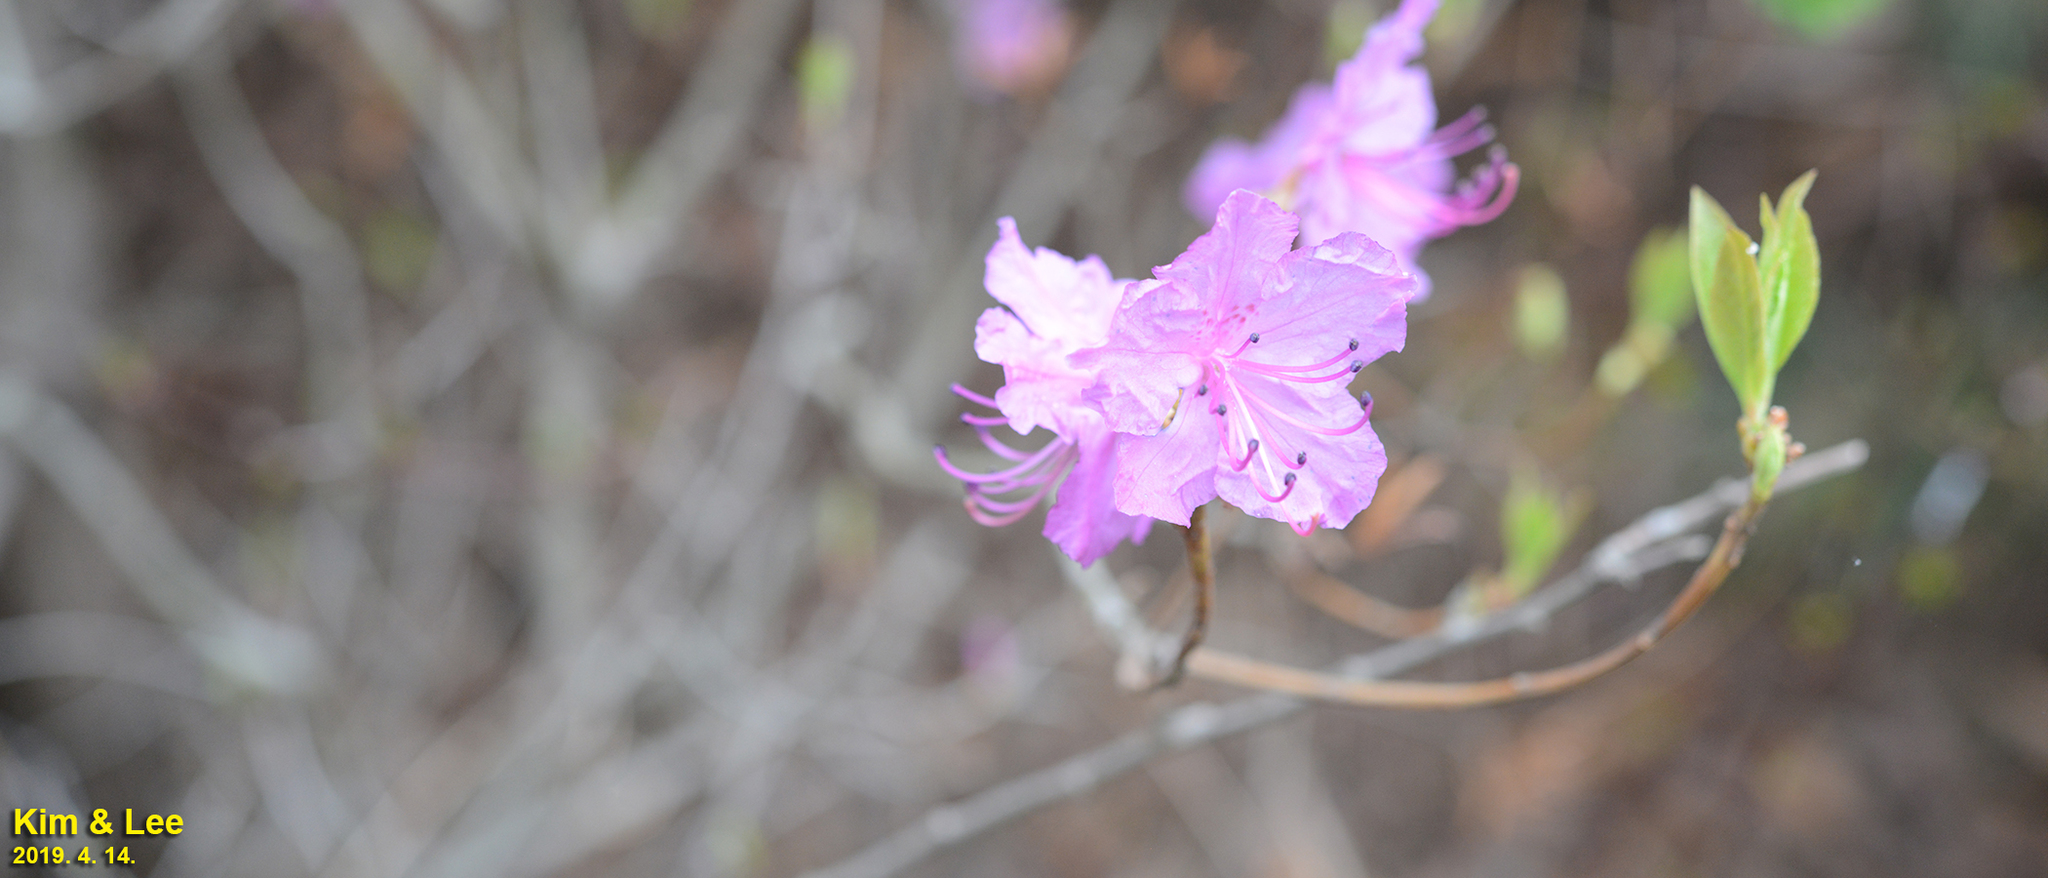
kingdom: Plantae
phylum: Tracheophyta
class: Magnoliopsida
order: Ericales
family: Ericaceae
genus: Rhododendron
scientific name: Rhododendron mucronulatum
